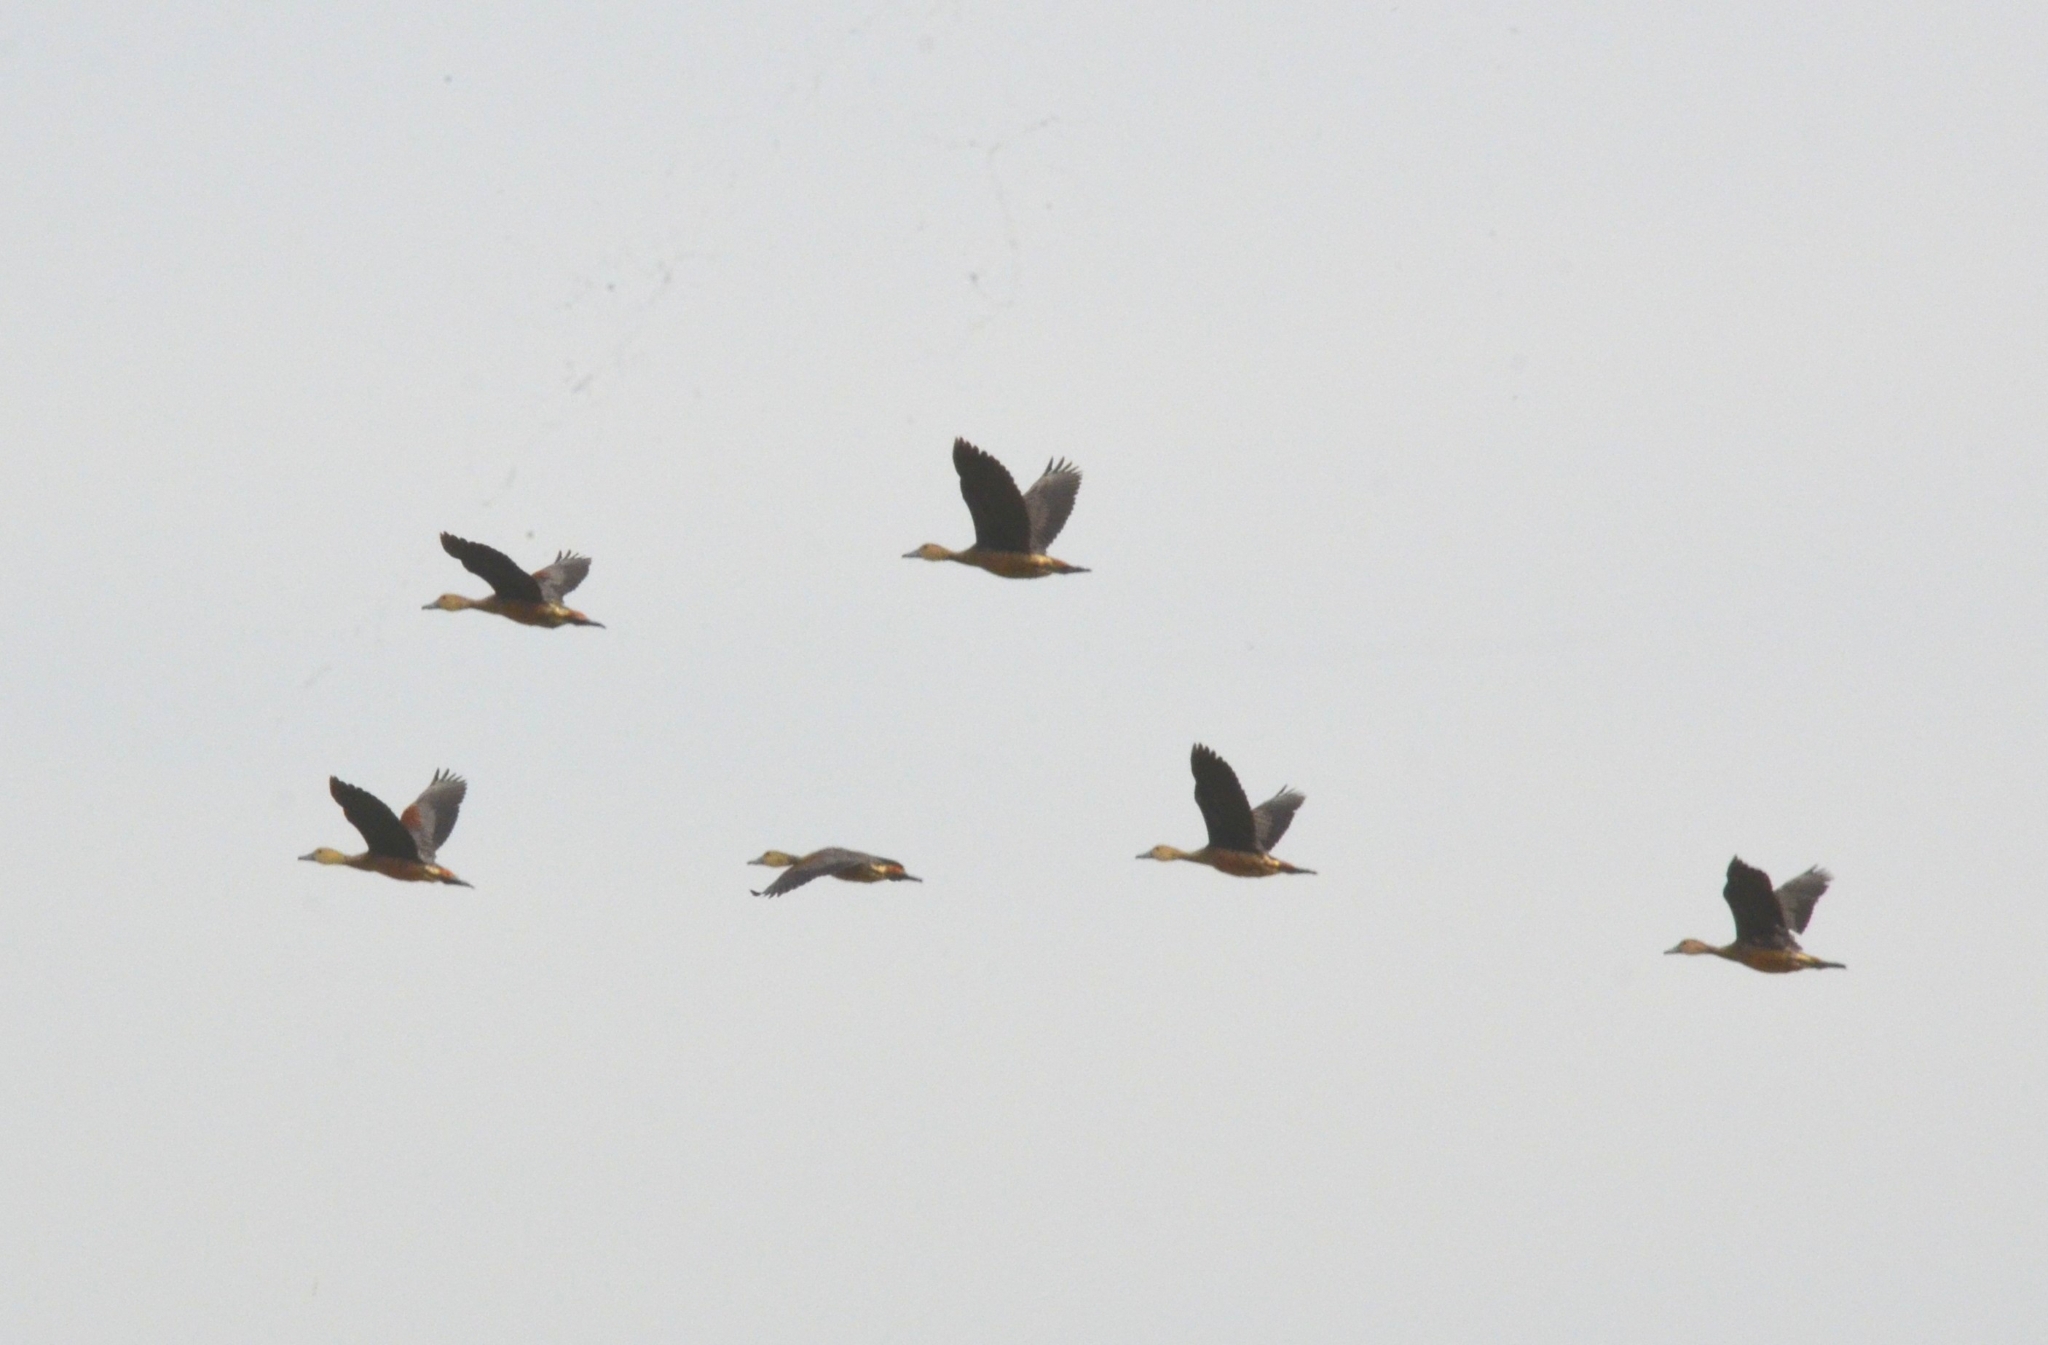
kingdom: Animalia
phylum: Chordata
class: Aves
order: Anseriformes
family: Anatidae
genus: Dendrocygna
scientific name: Dendrocygna javanica
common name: Lesser whistling-duck
